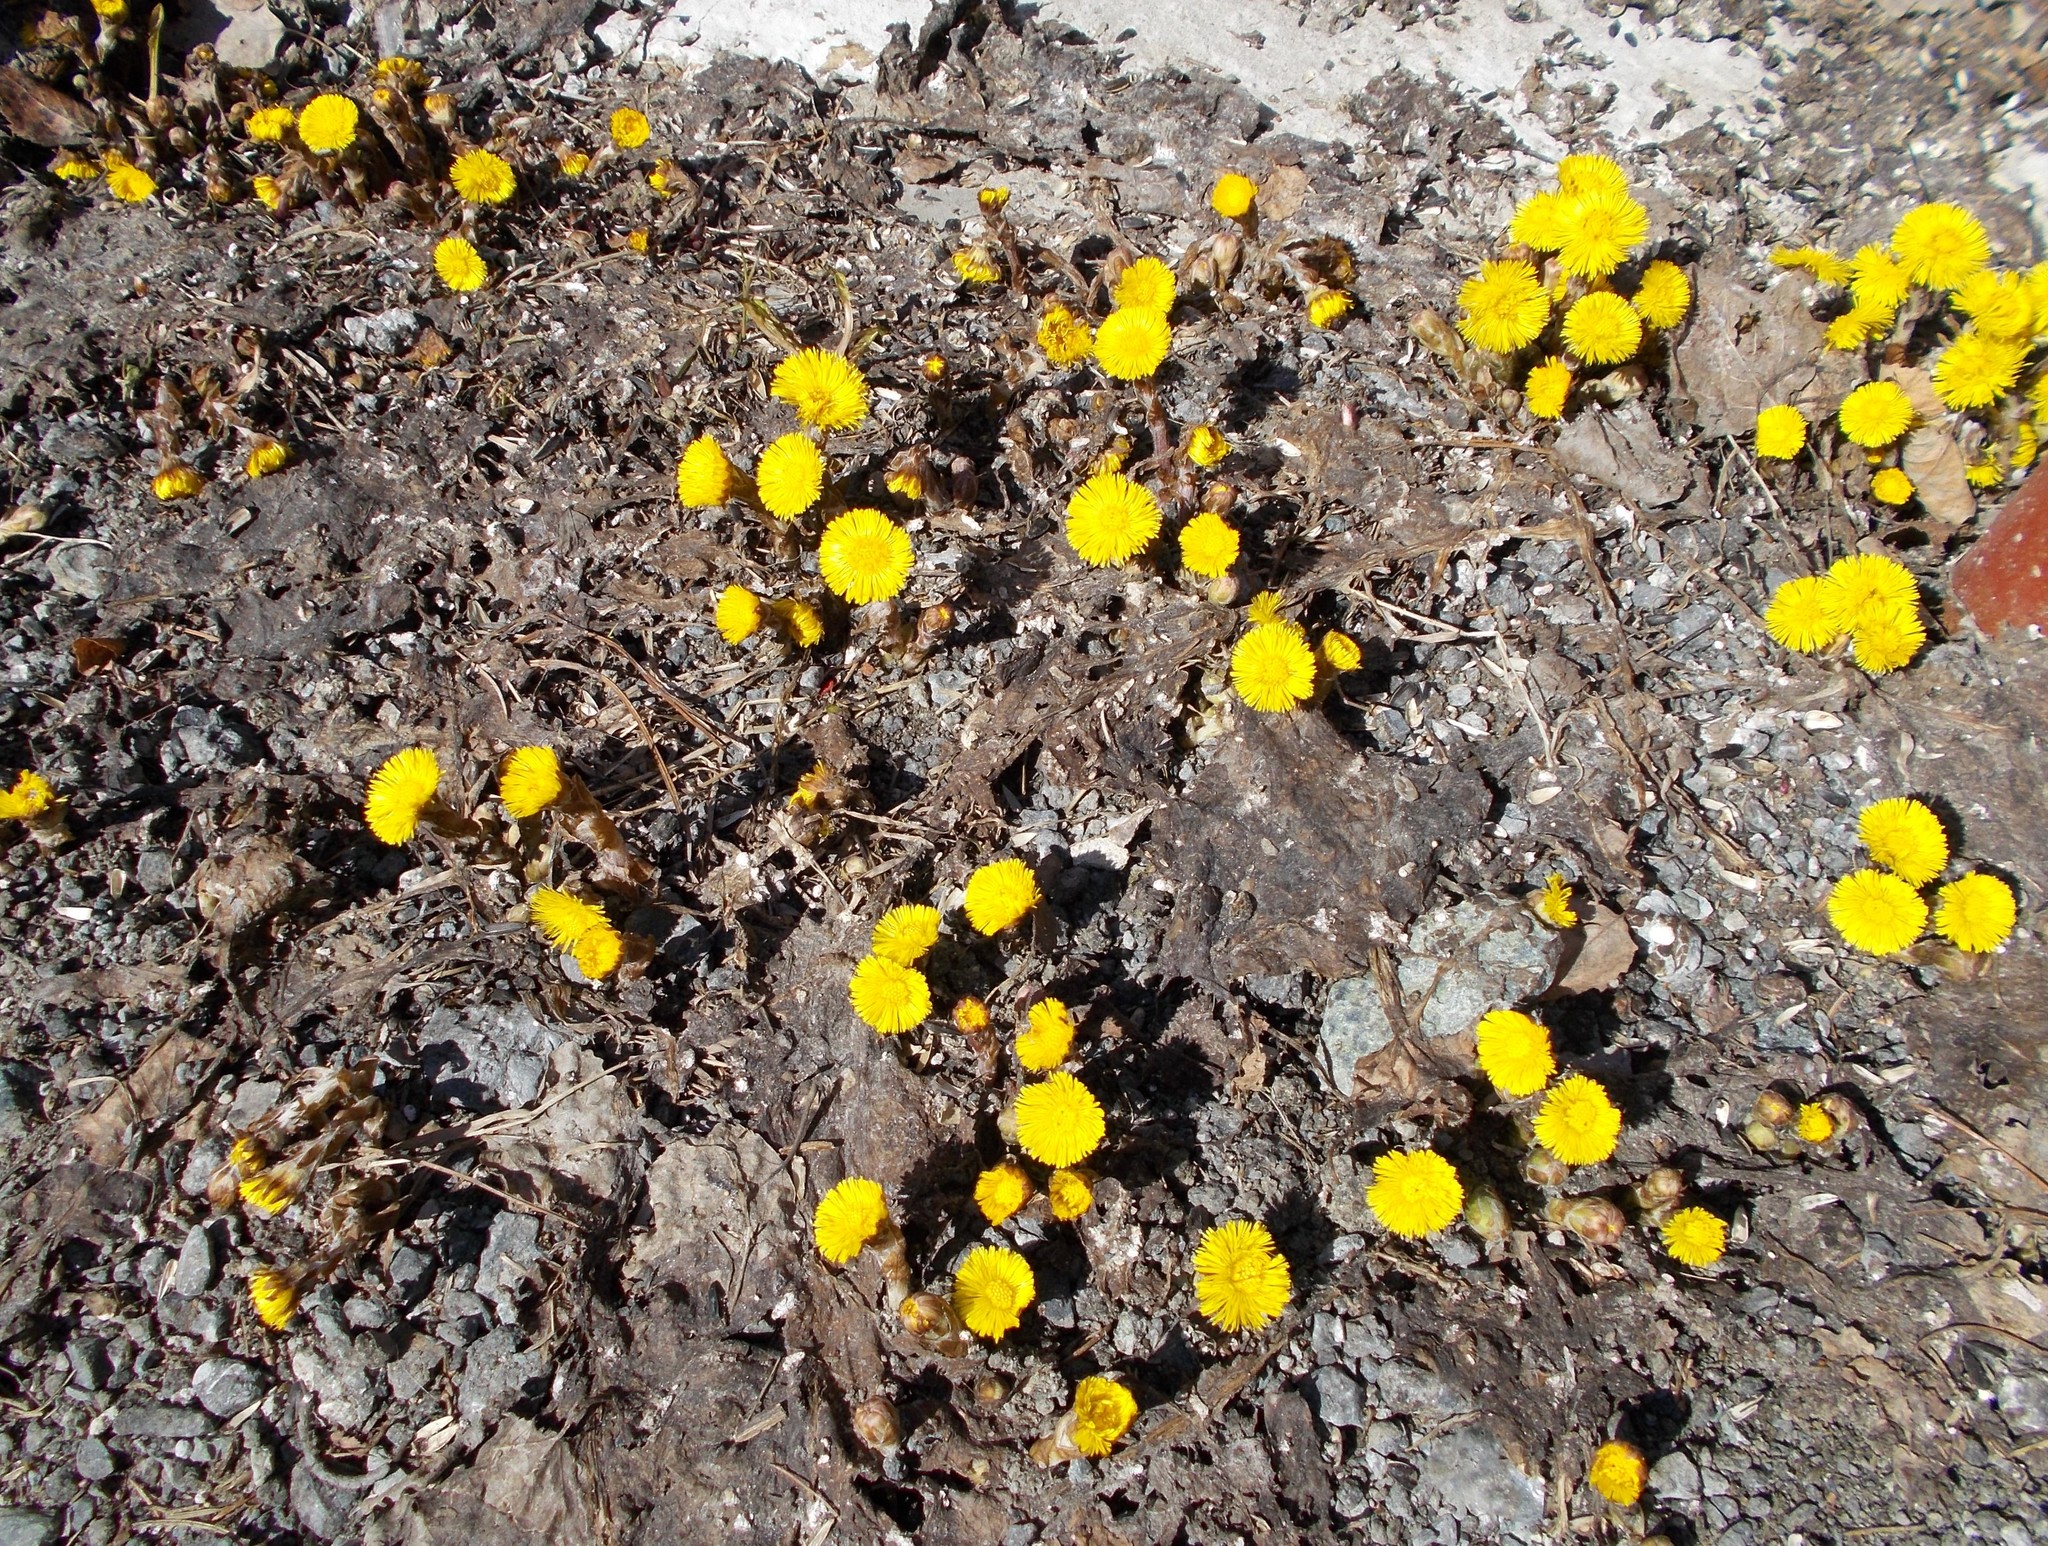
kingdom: Plantae
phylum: Tracheophyta
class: Magnoliopsida
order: Asterales
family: Asteraceae
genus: Tussilago
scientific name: Tussilago farfara
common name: Coltsfoot
